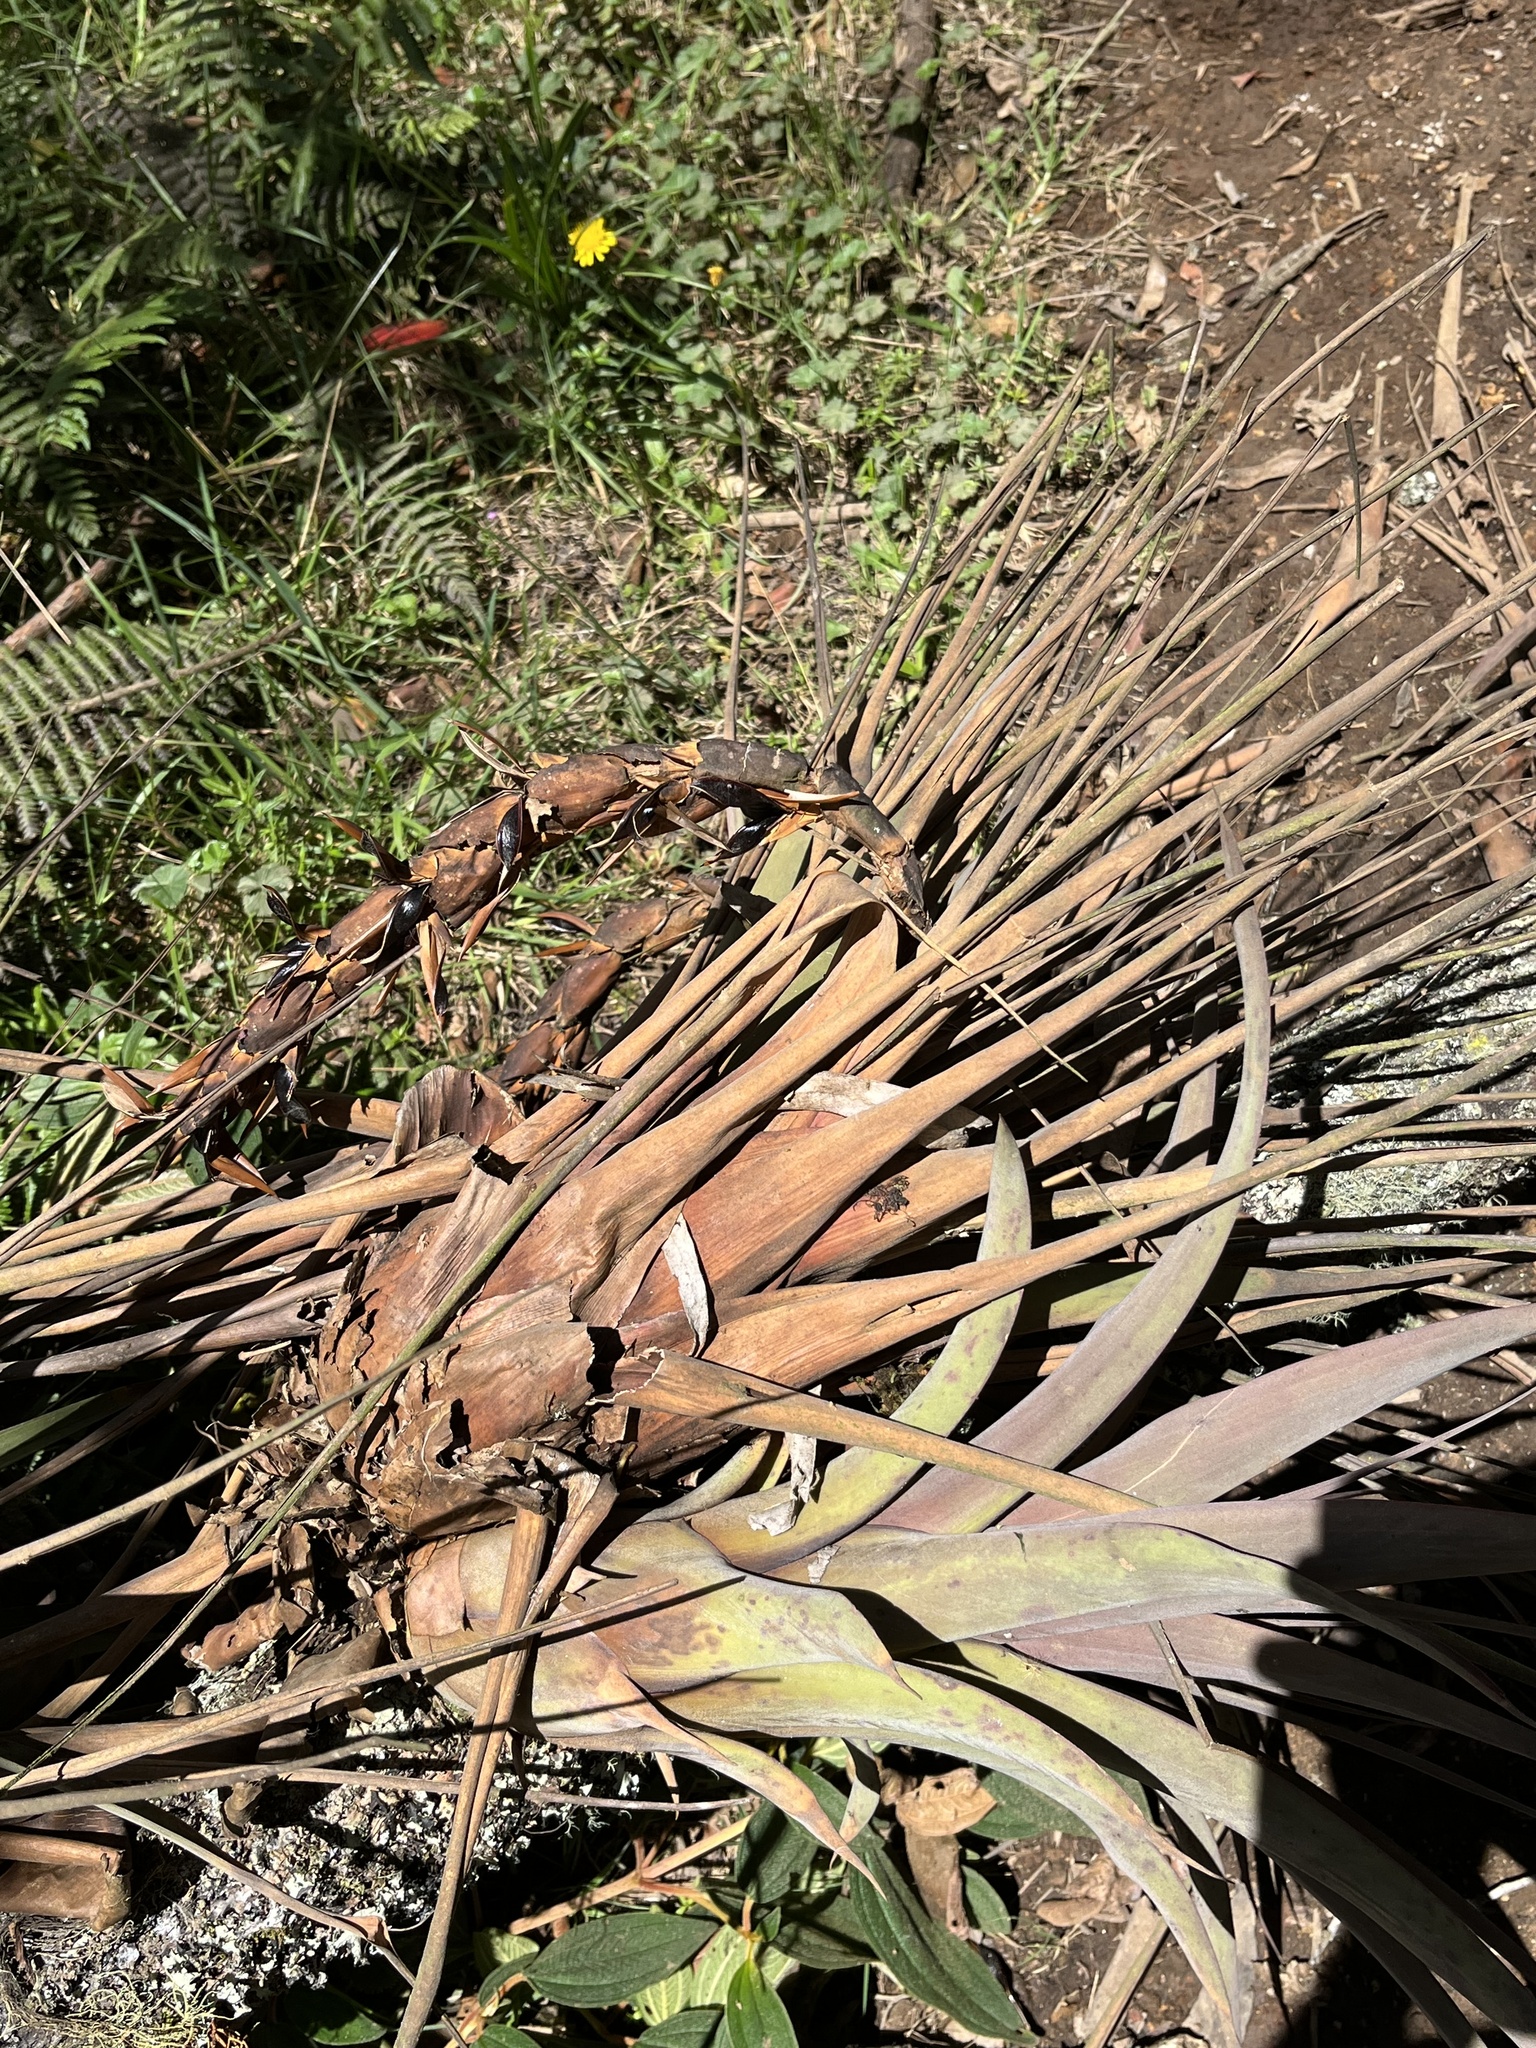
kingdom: Plantae
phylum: Tracheophyta
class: Liliopsida
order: Poales
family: Bromeliaceae
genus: Vriesea
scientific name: Vriesea tequendamae
